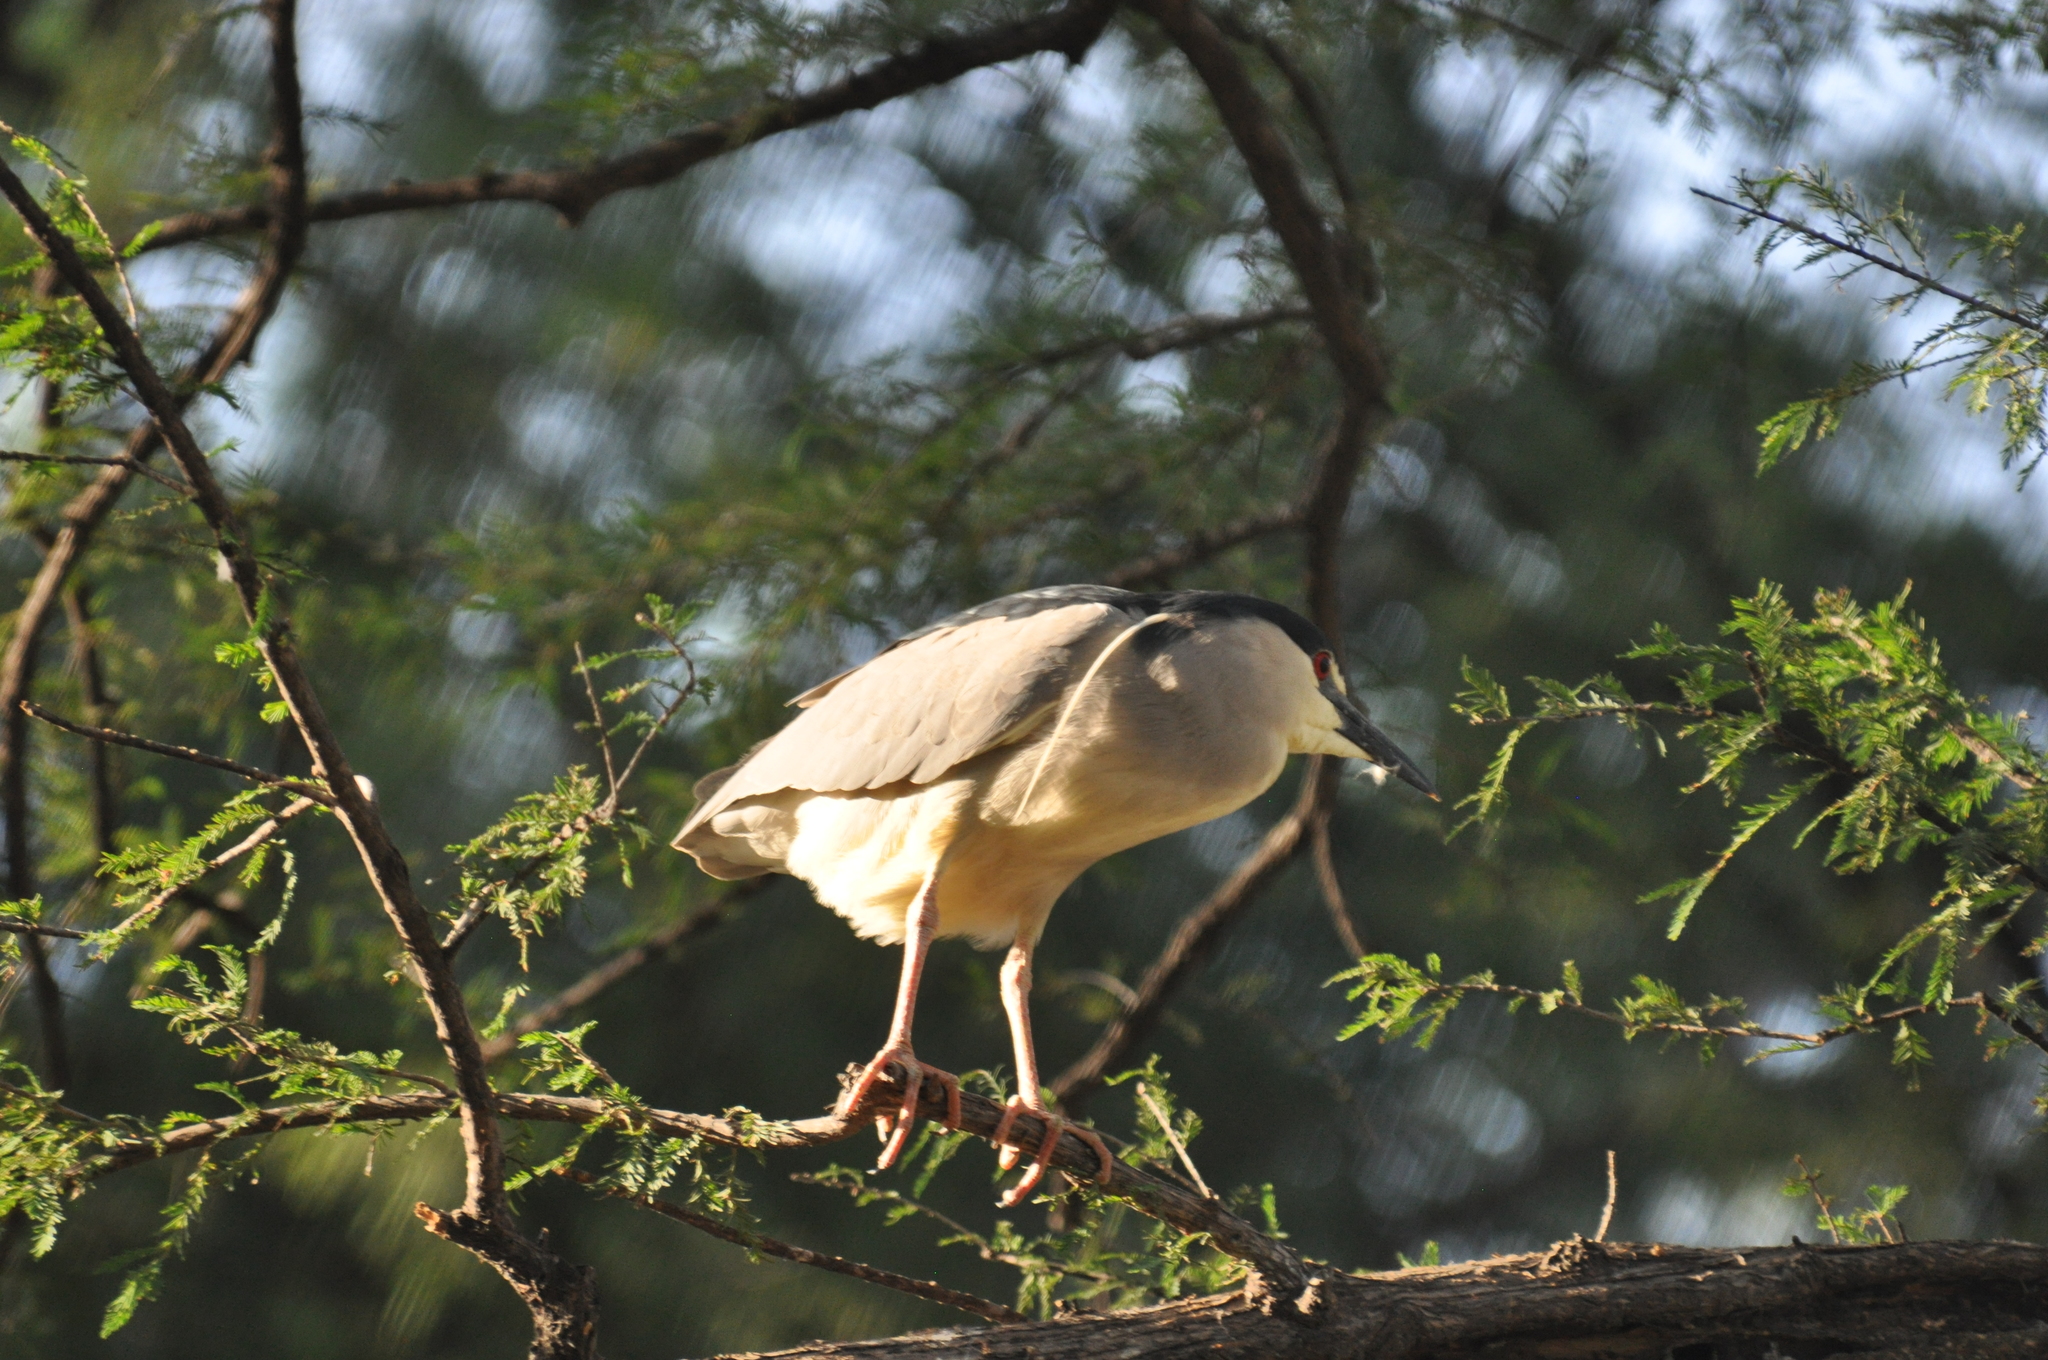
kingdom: Animalia
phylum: Chordata
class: Aves
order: Pelecaniformes
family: Ardeidae
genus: Nycticorax
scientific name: Nycticorax nycticorax
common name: Black-crowned night heron
